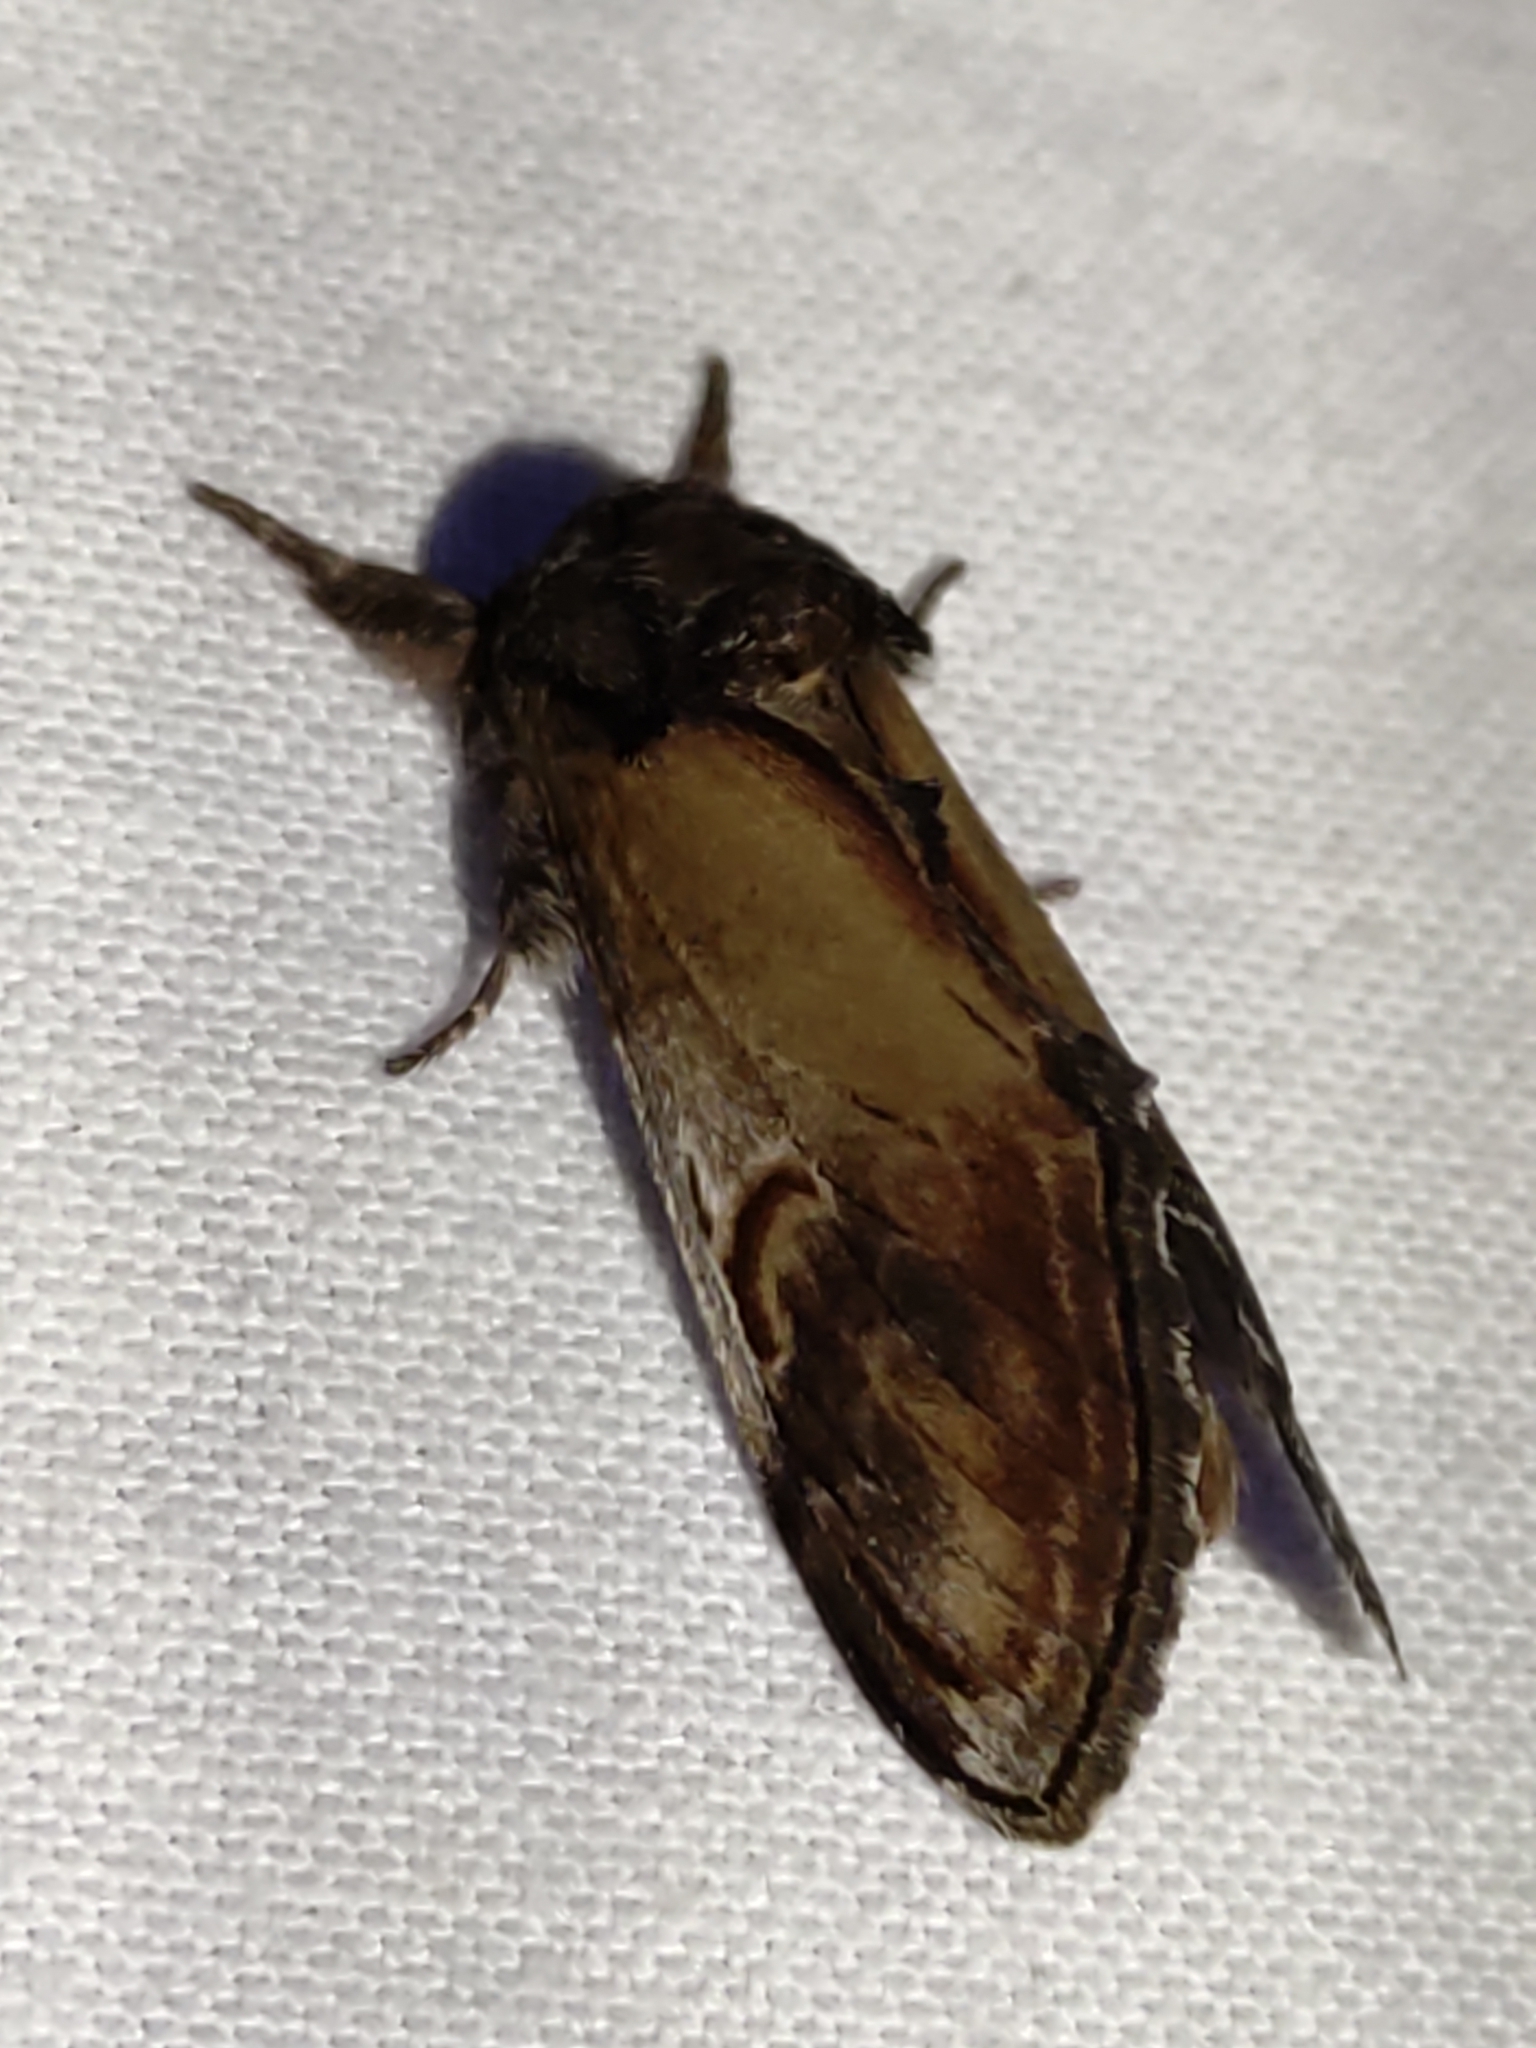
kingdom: Animalia
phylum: Arthropoda
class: Insecta
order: Lepidoptera
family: Notodontidae
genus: Notodonta
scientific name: Notodonta ziczac
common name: Pebble prominent
